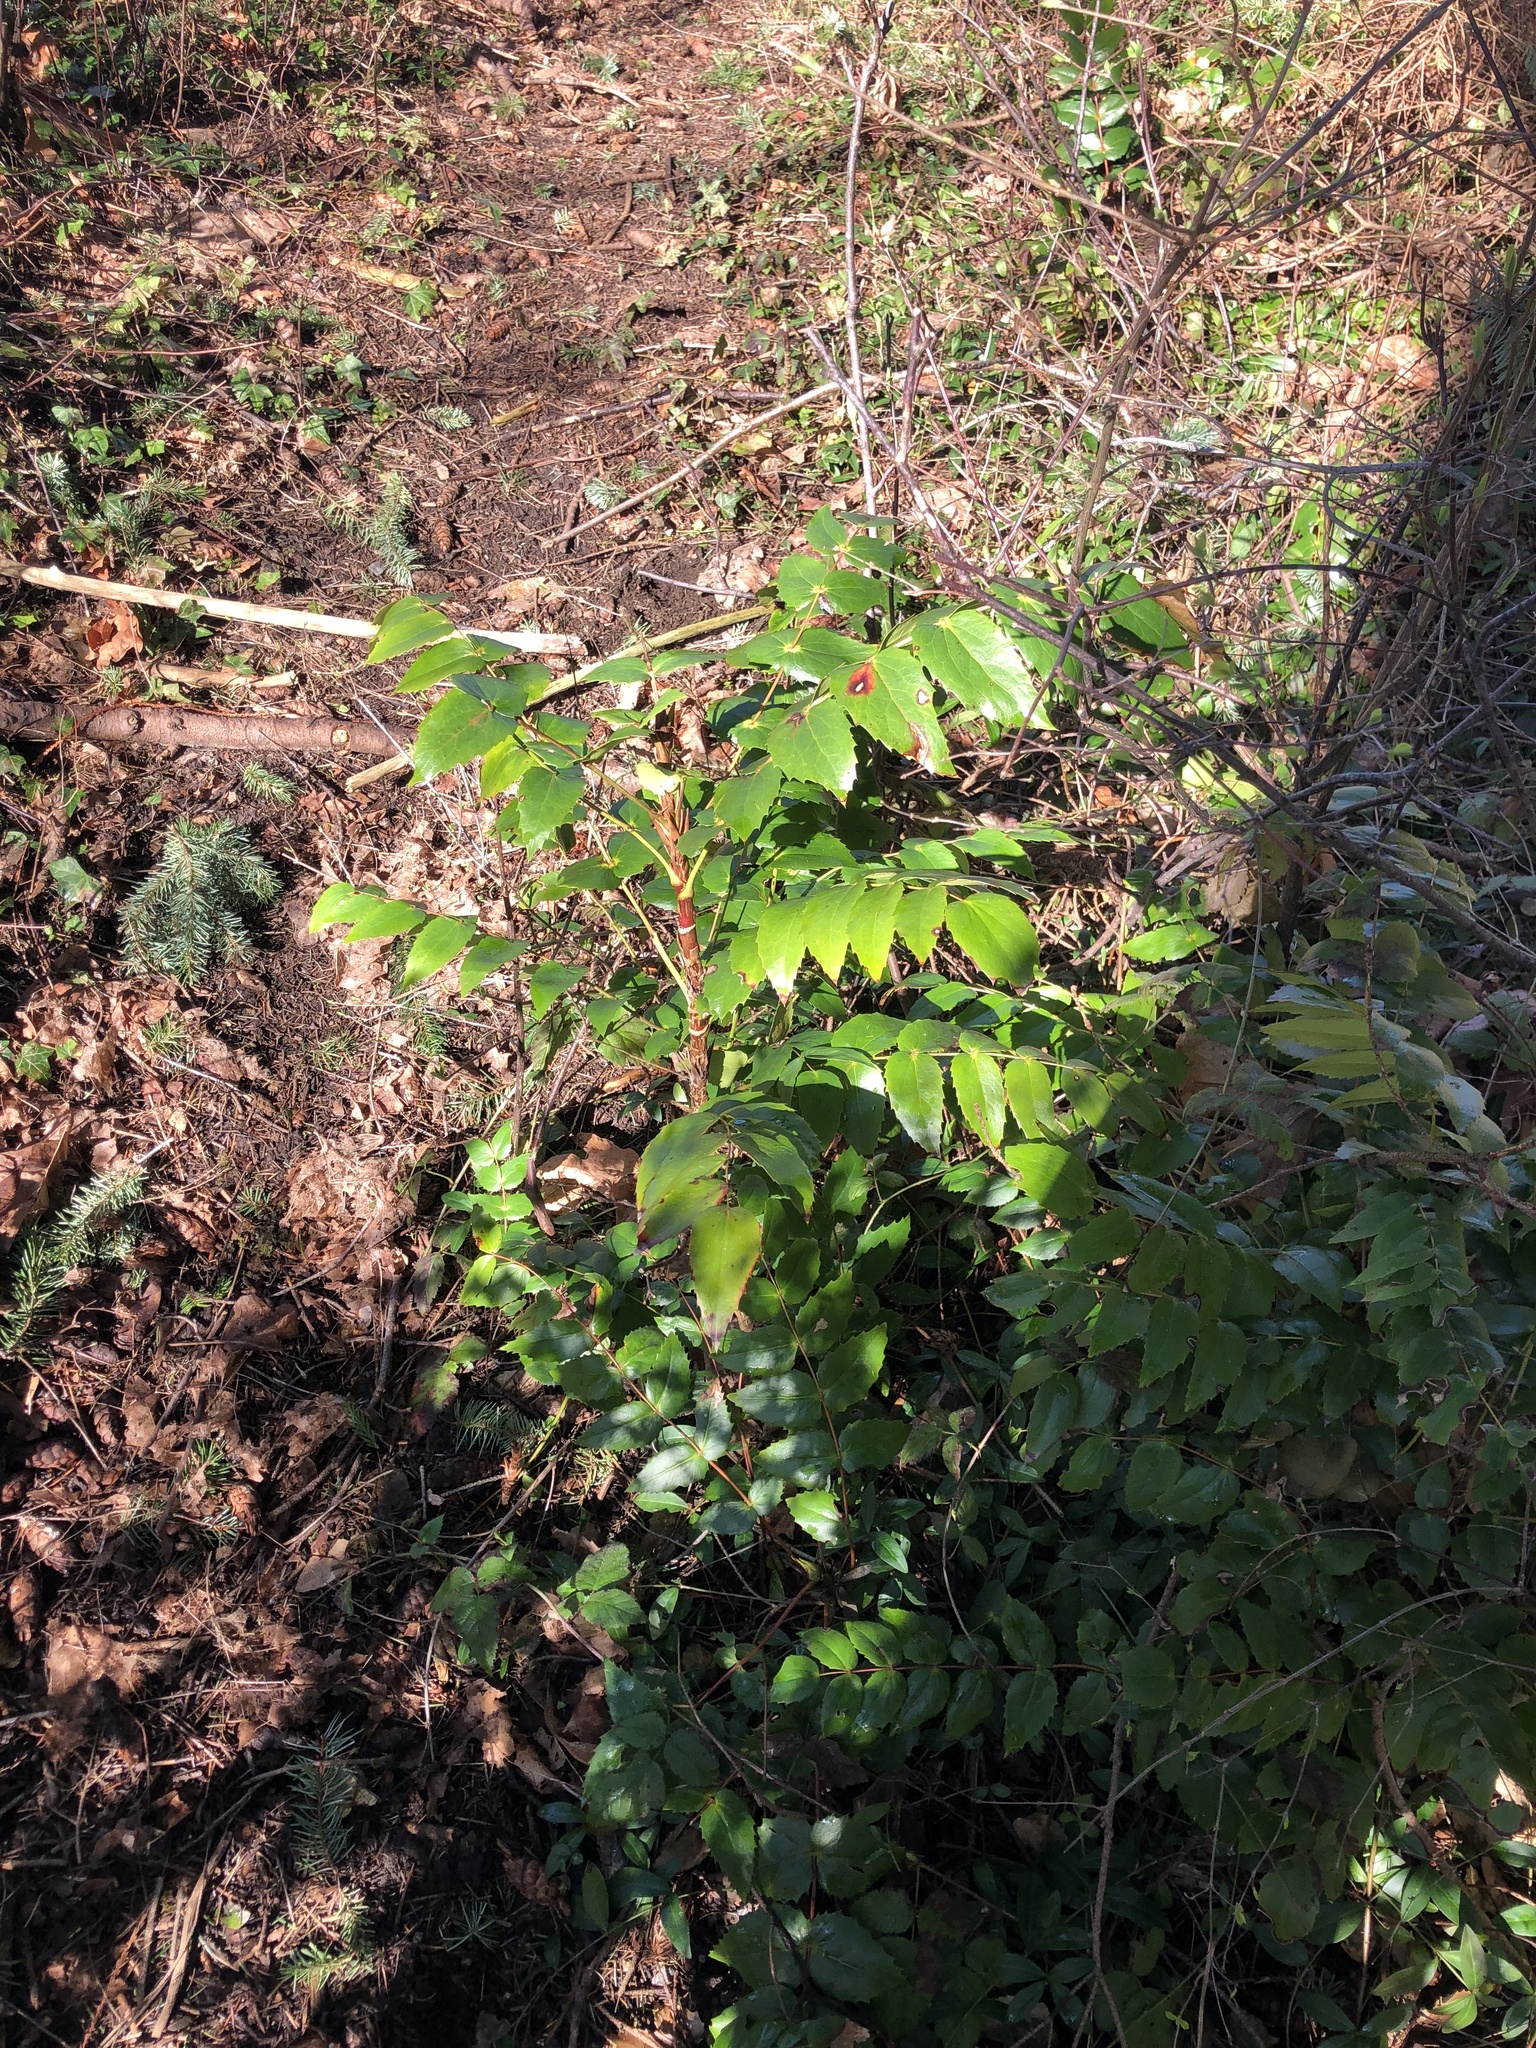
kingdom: Plantae
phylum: Tracheophyta
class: Magnoliopsida
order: Ranunculales
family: Berberidaceae
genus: Mahonia
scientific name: Mahonia nervosa
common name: Cascade oregon-grape
